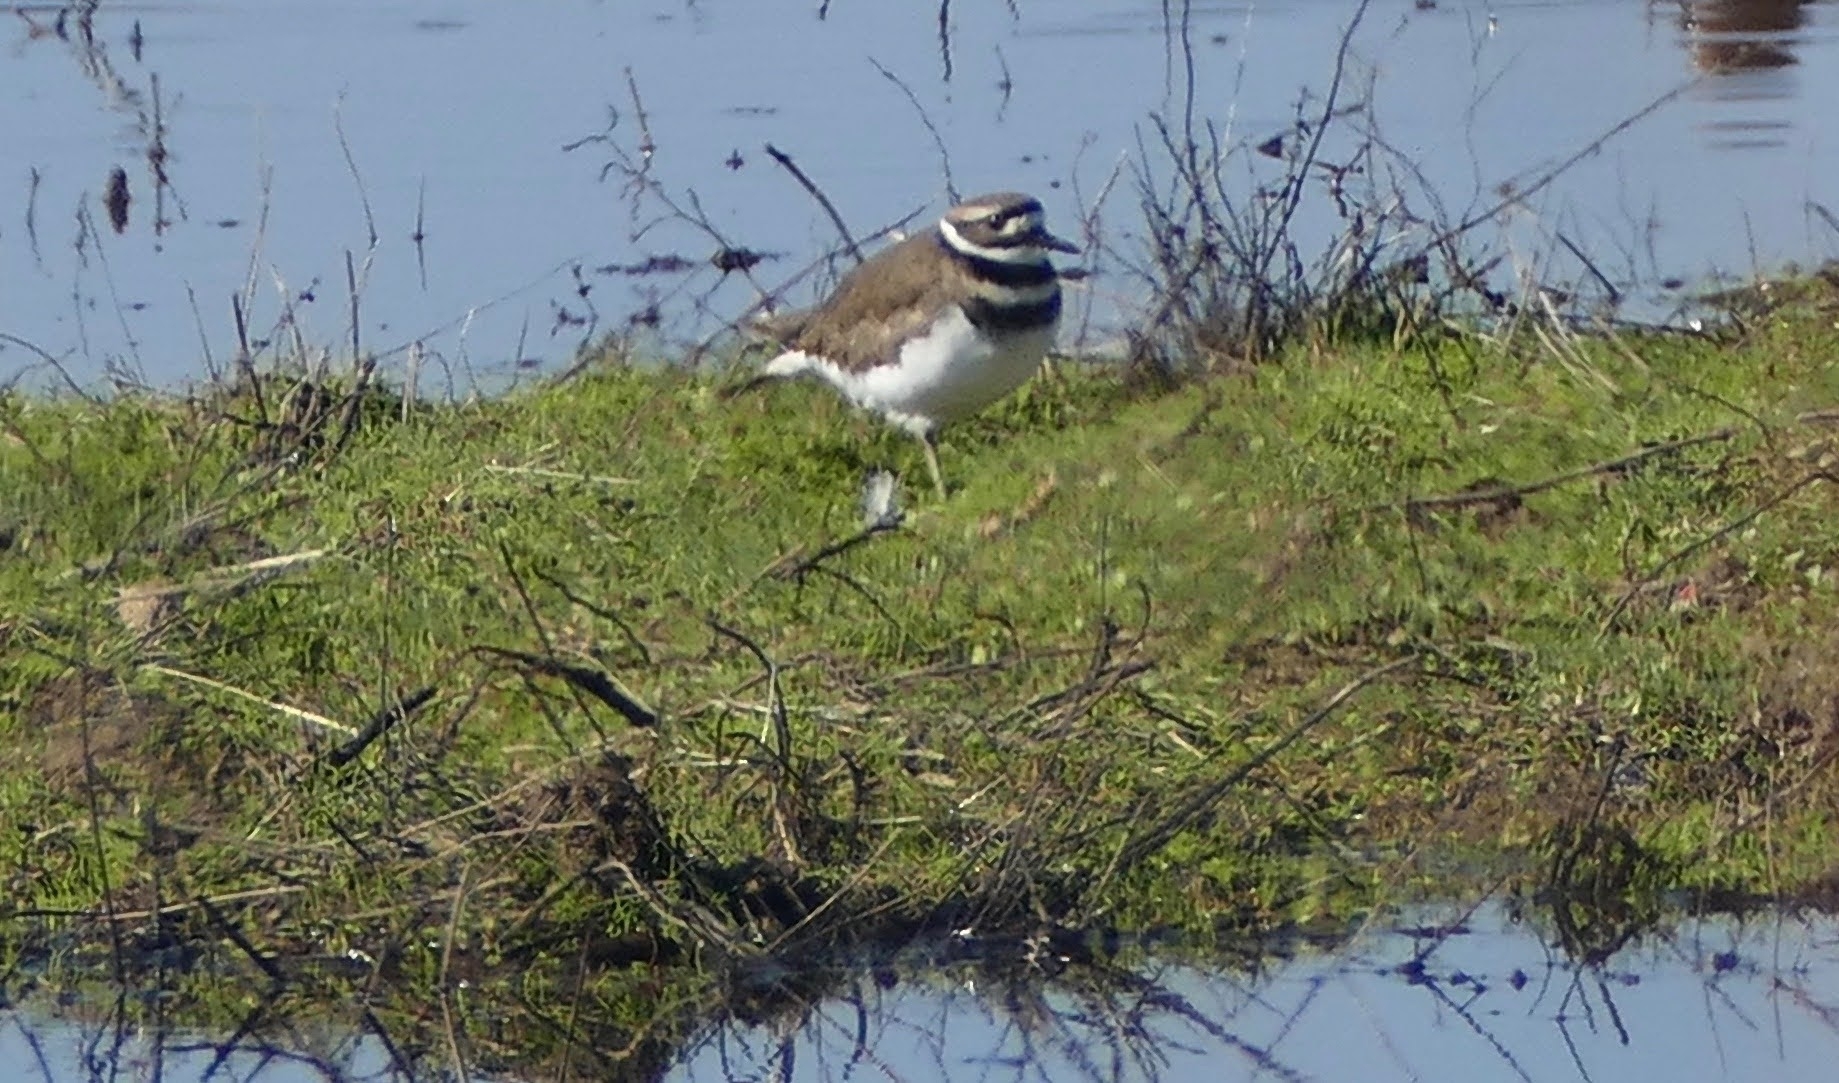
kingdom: Animalia
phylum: Chordata
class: Aves
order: Charadriiformes
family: Charadriidae
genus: Charadrius
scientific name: Charadrius vociferus
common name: Killdeer
